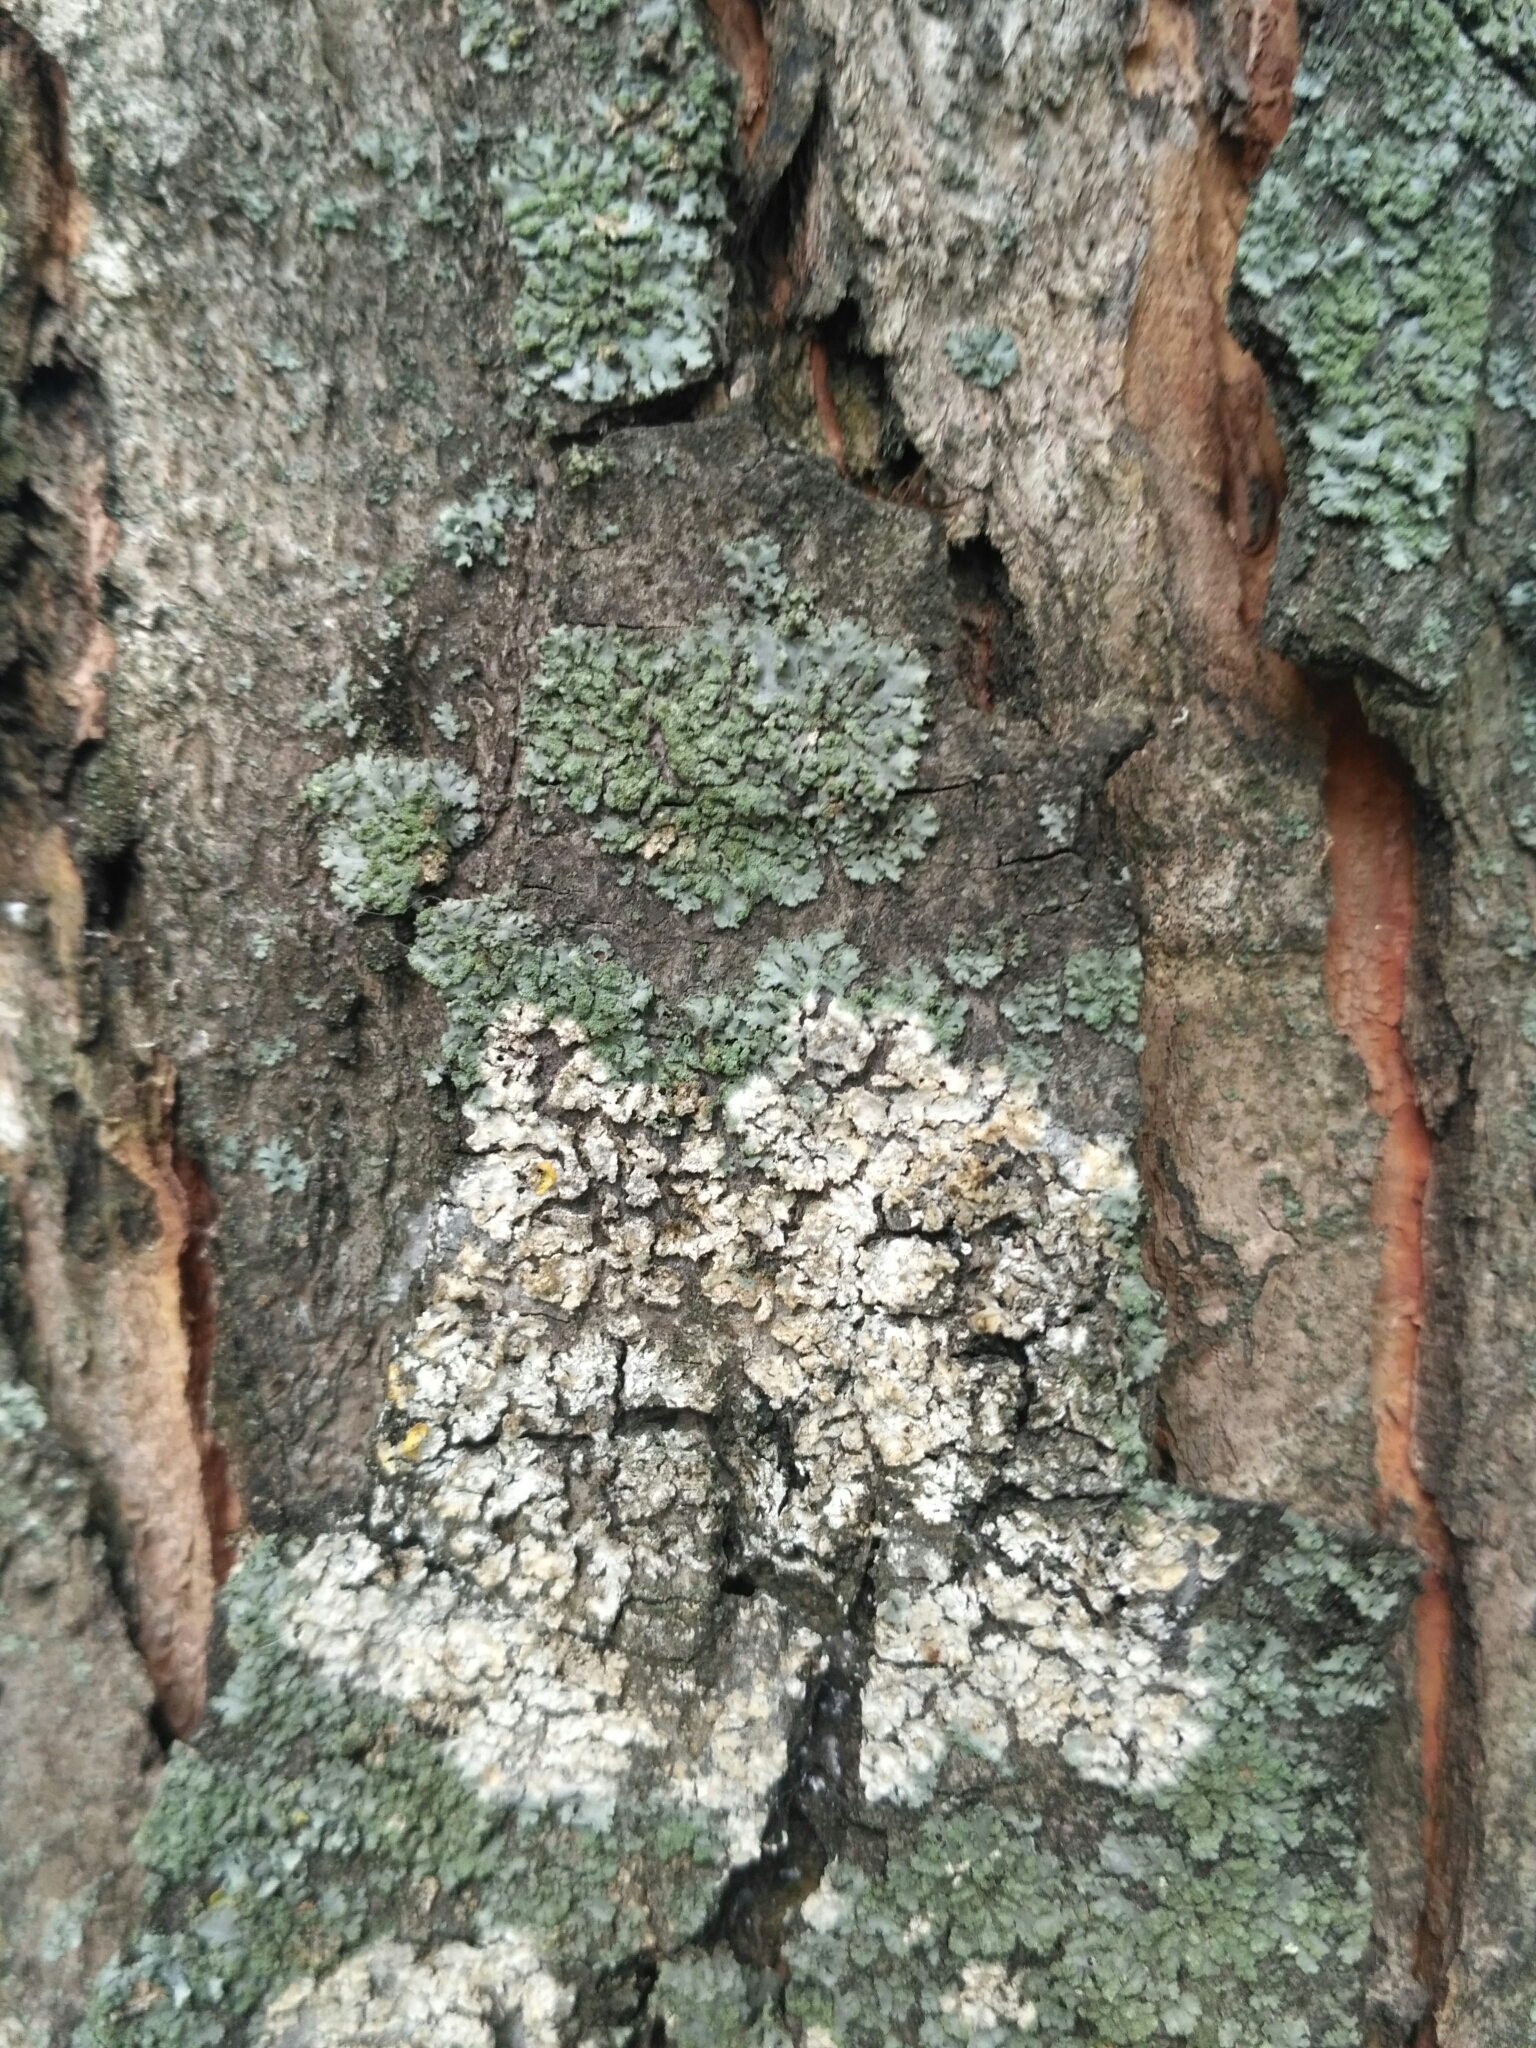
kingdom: Fungi
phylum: Ascomycota
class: Lecanoromycetes
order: Caliciales
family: Physciaceae
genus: Phaeophyscia
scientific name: Phaeophyscia orbicularis
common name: Mealy shadow lichen
